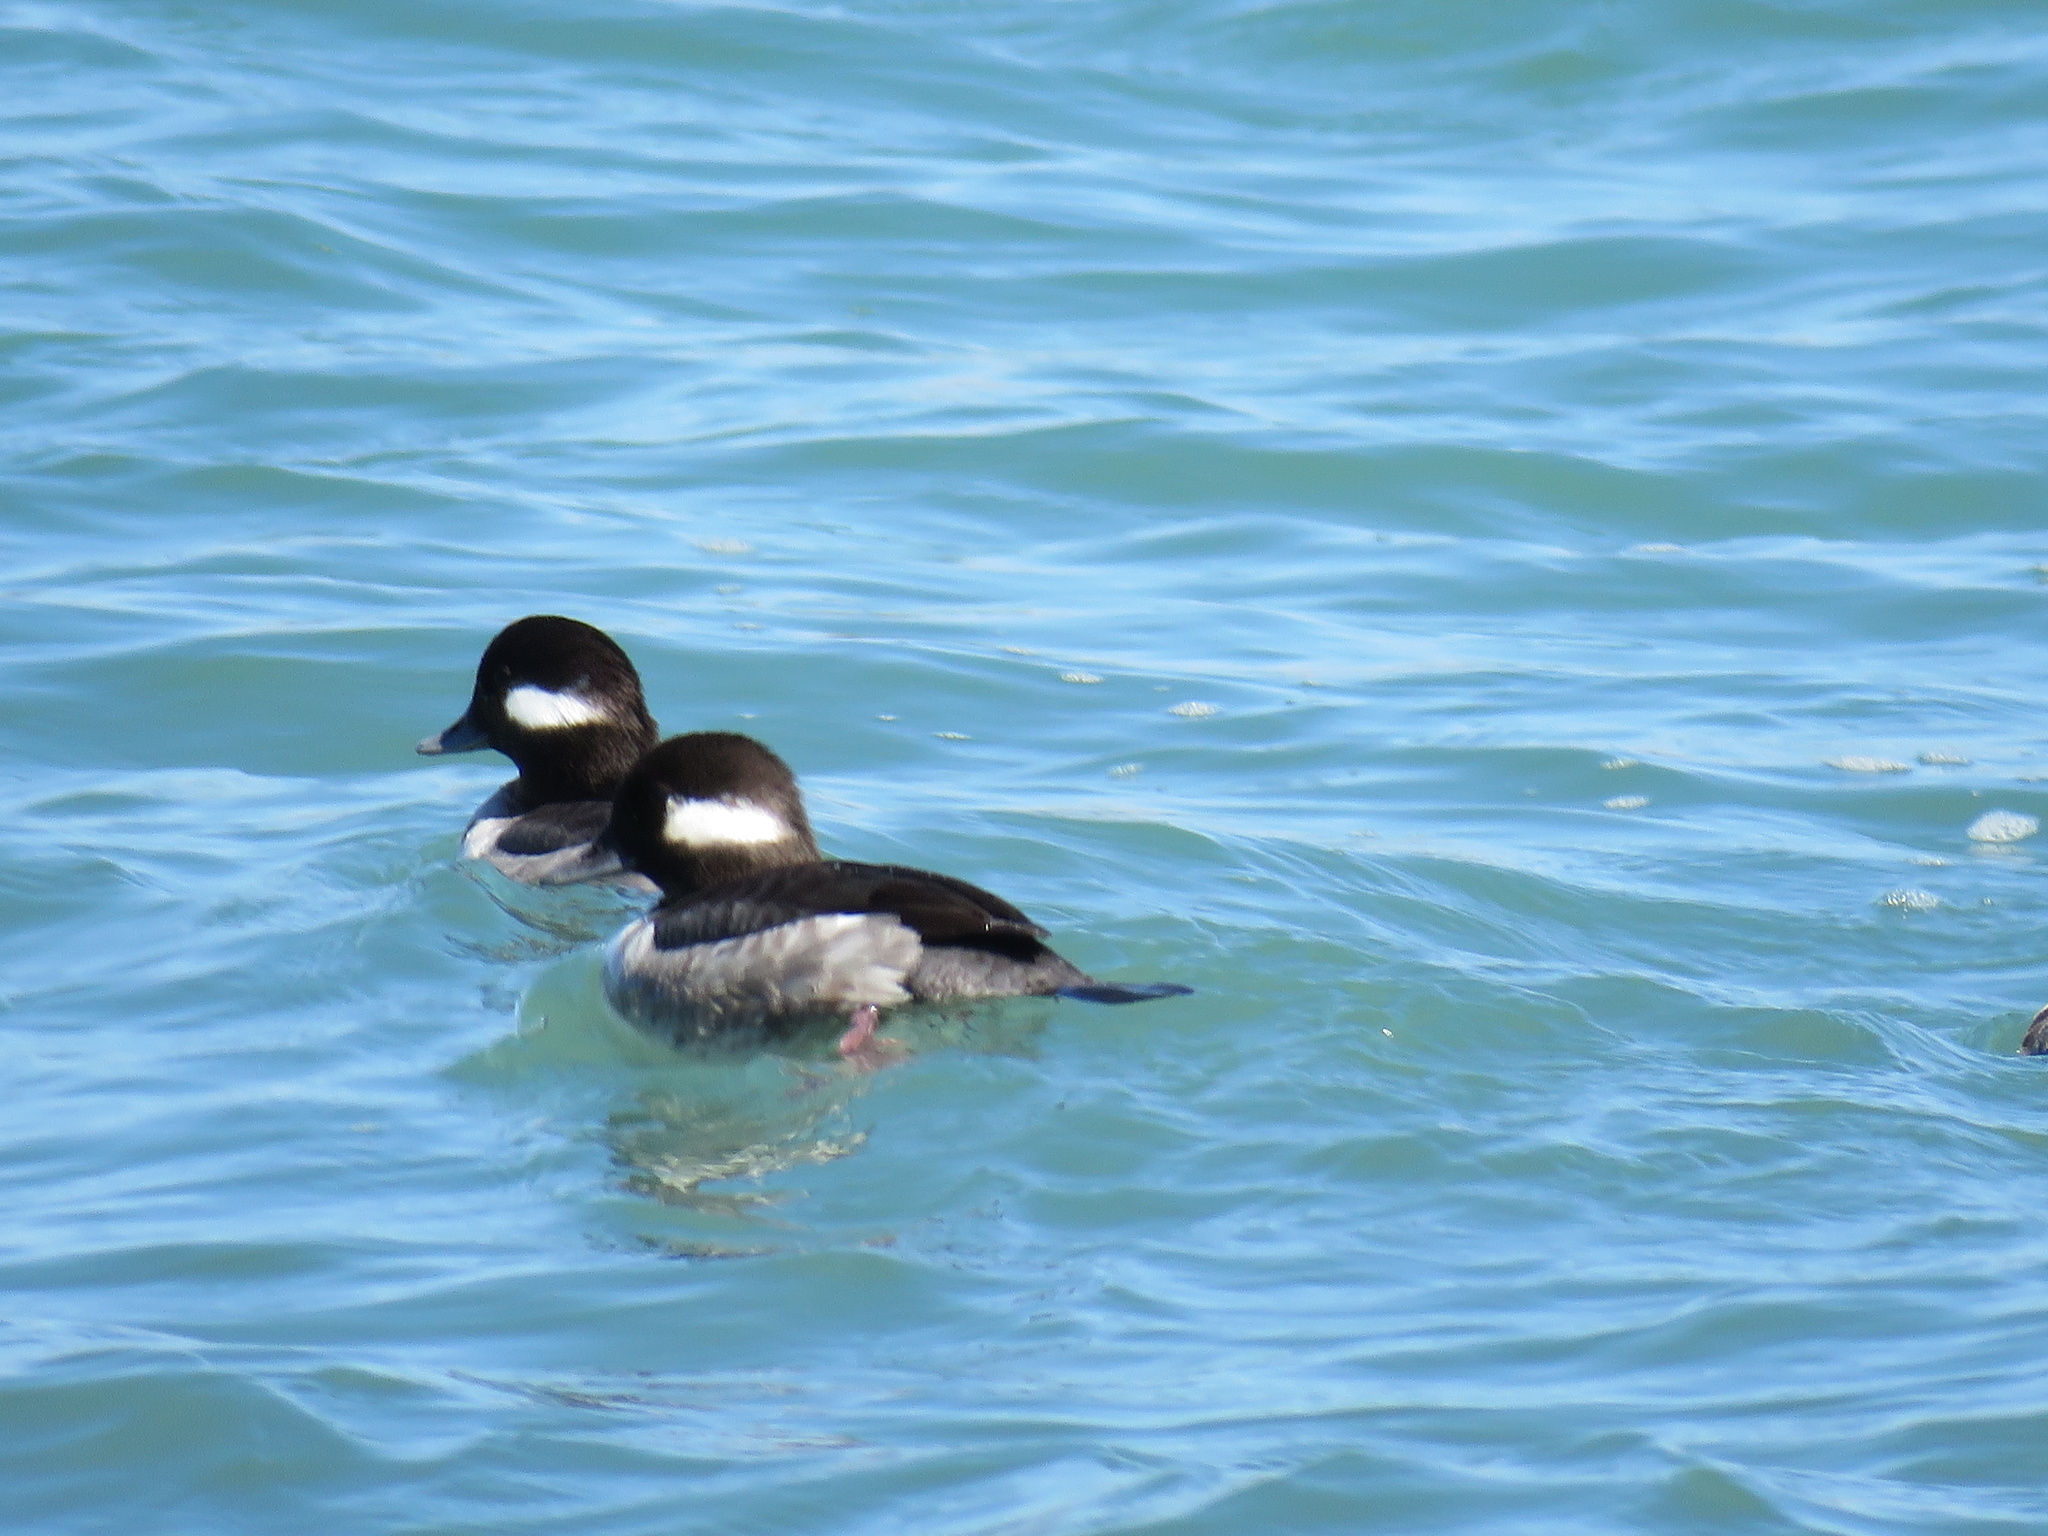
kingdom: Animalia
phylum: Chordata
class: Aves
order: Anseriformes
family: Anatidae
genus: Bucephala
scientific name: Bucephala albeola
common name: Bufflehead
